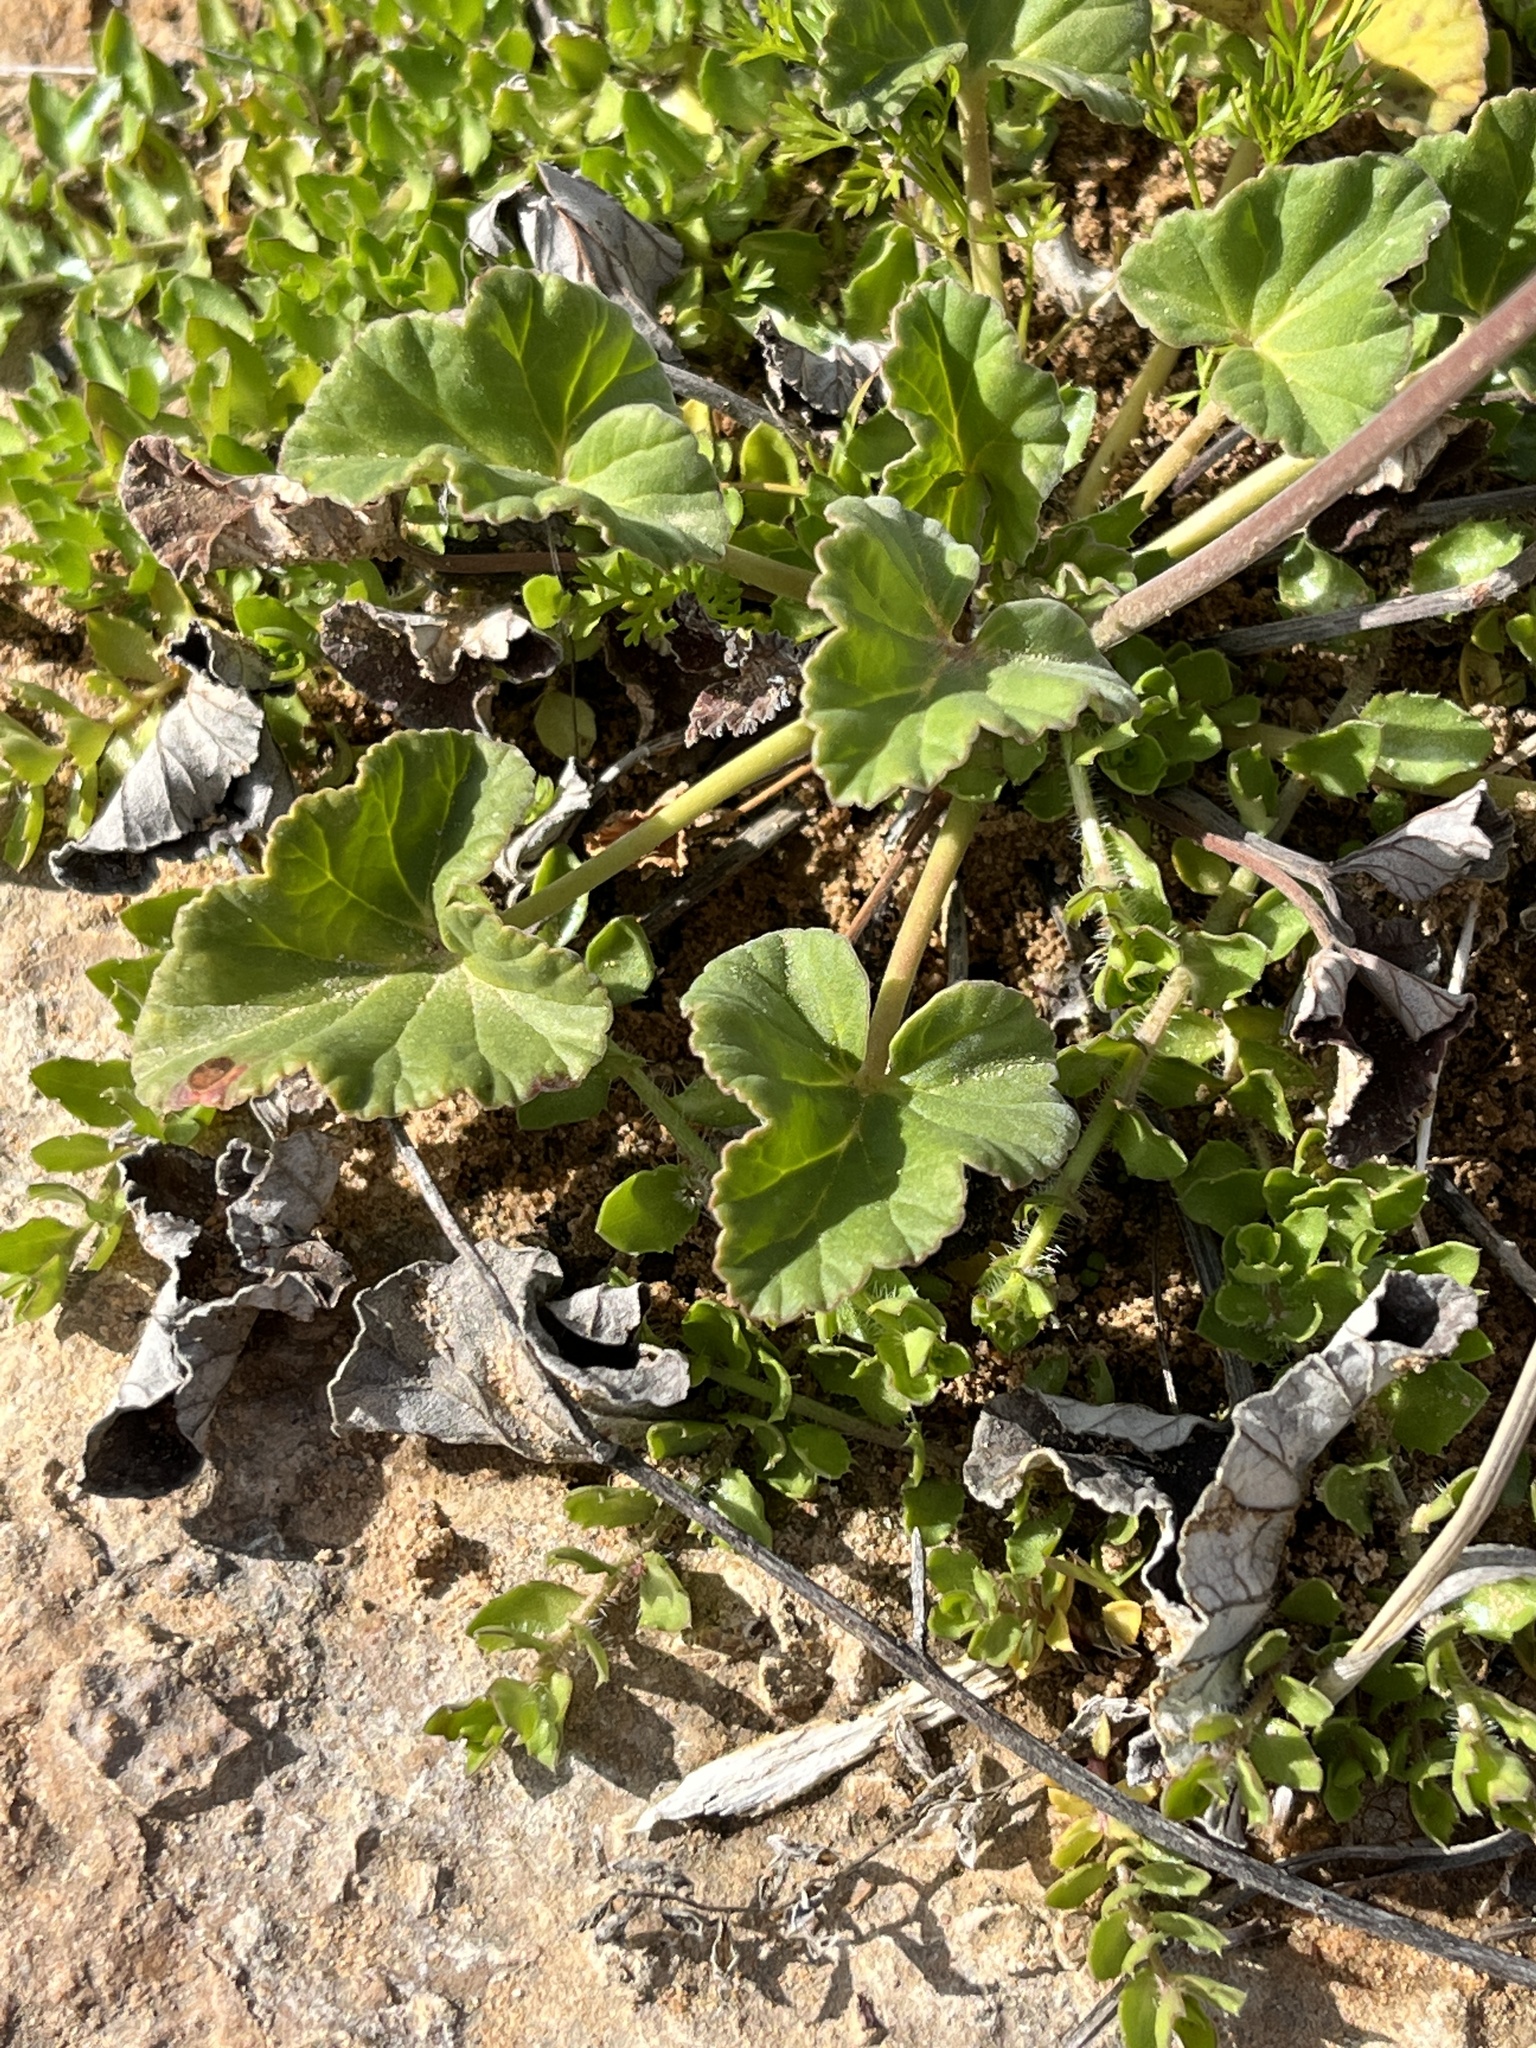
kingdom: Plantae
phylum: Tracheophyta
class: Magnoliopsida
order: Geraniales
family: Geraniaceae
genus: Pelargonium
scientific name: Pelargonium sidoides
